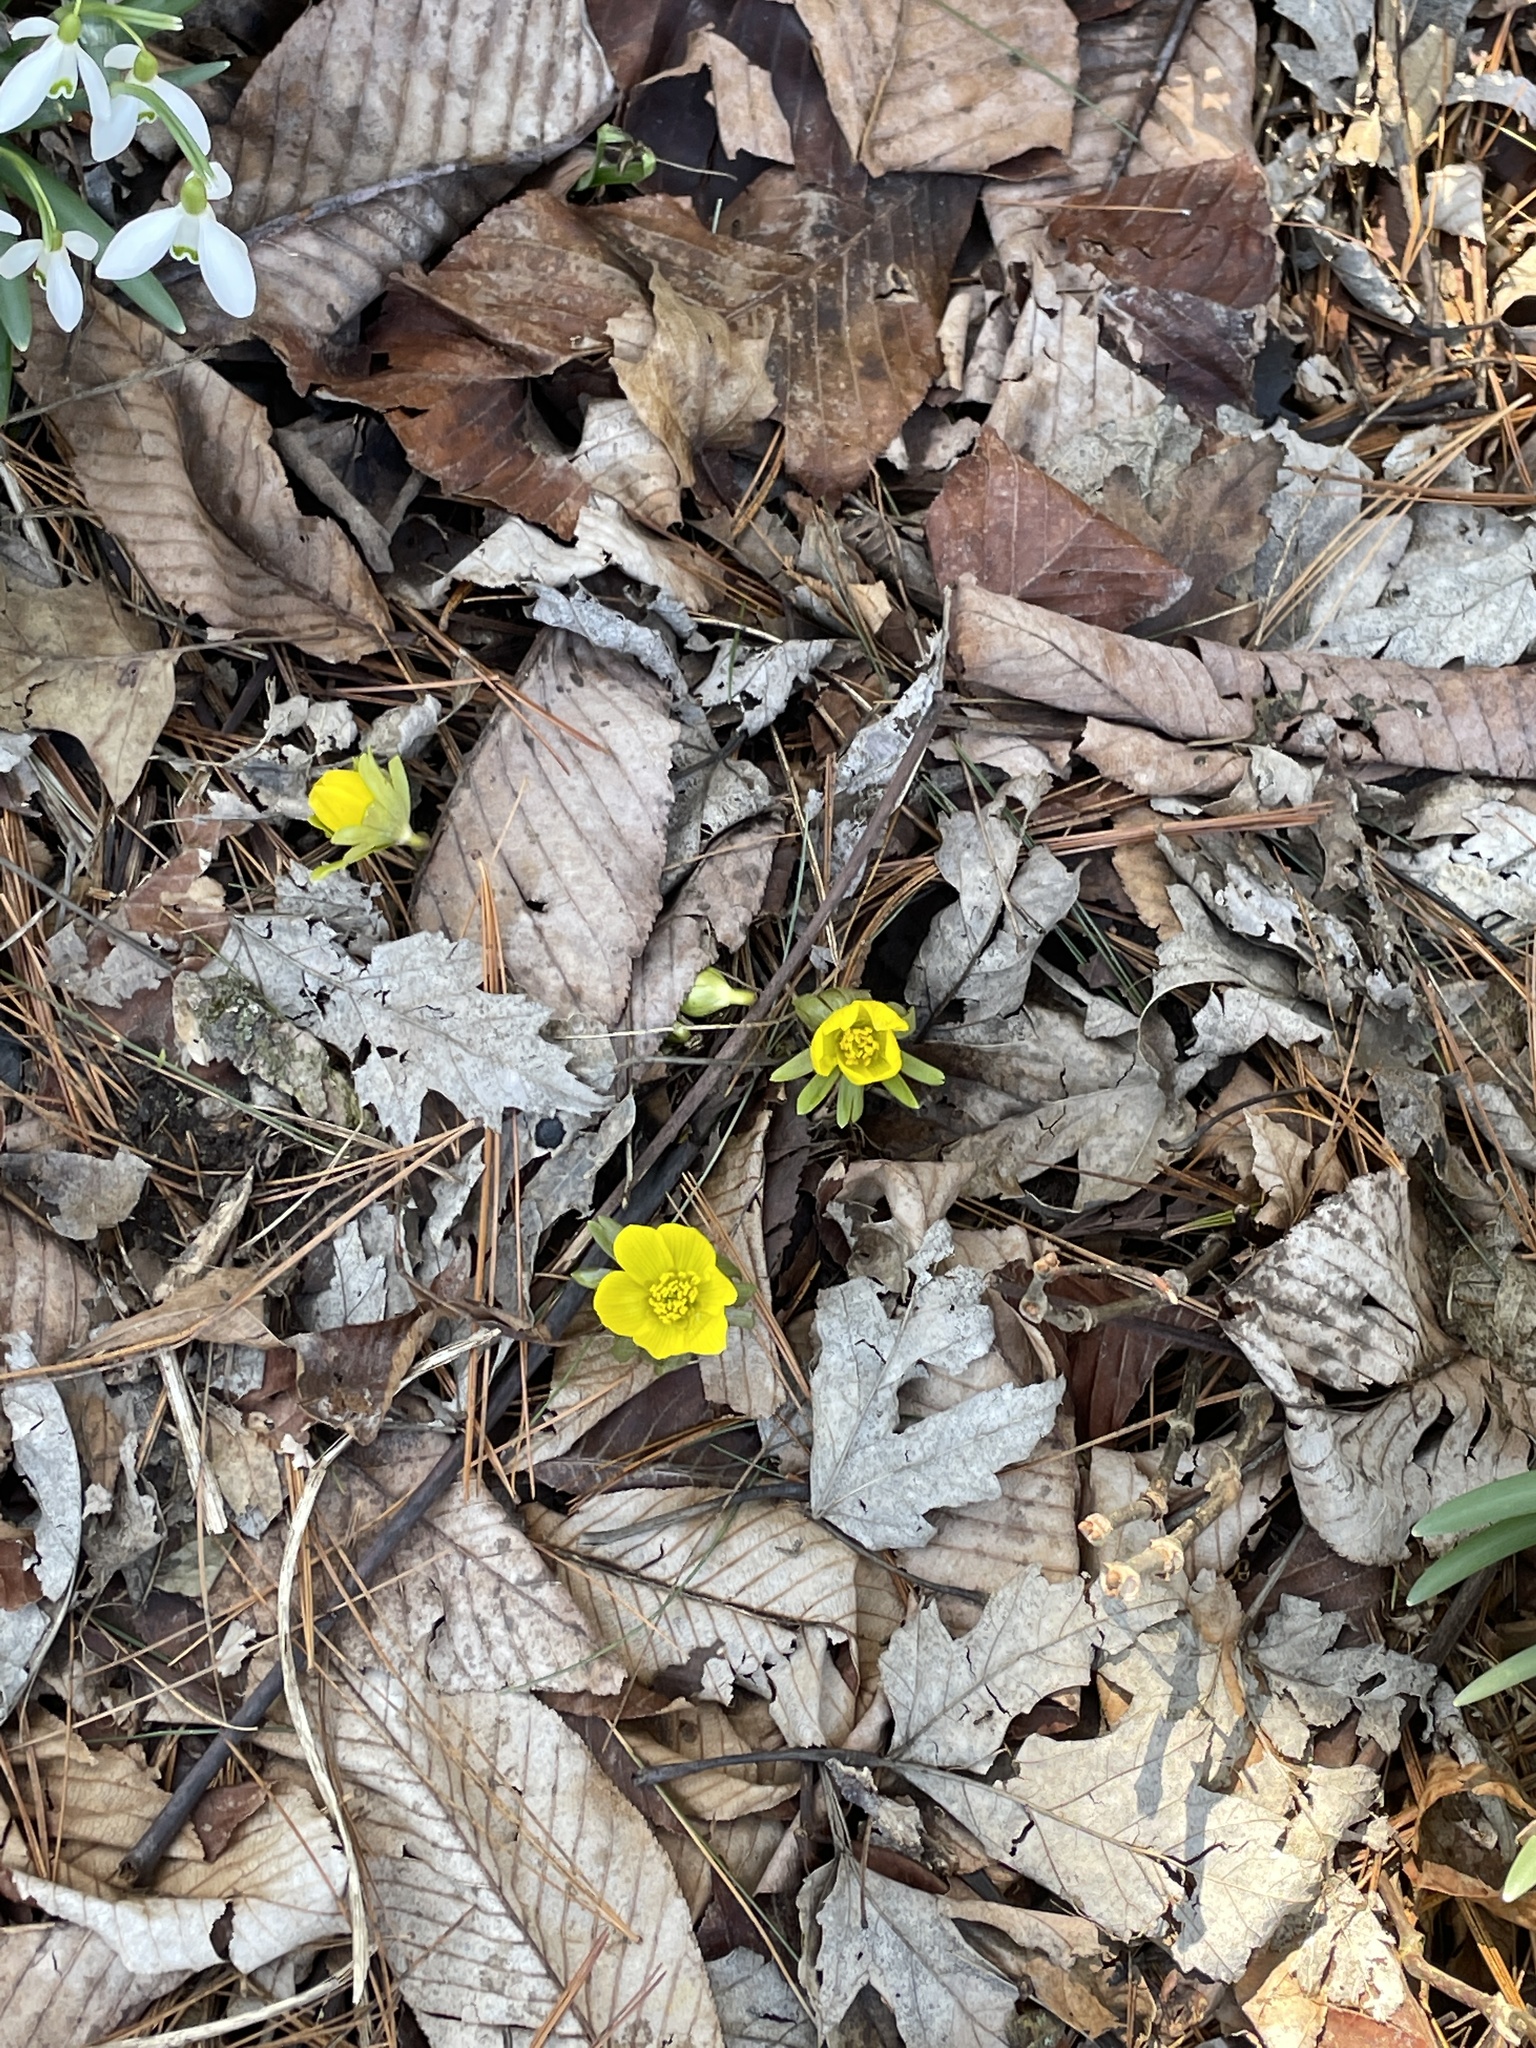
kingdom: Plantae
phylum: Tracheophyta
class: Magnoliopsida
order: Ranunculales
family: Ranunculaceae
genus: Eranthis
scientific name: Eranthis hyemalis
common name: Winter aconite
